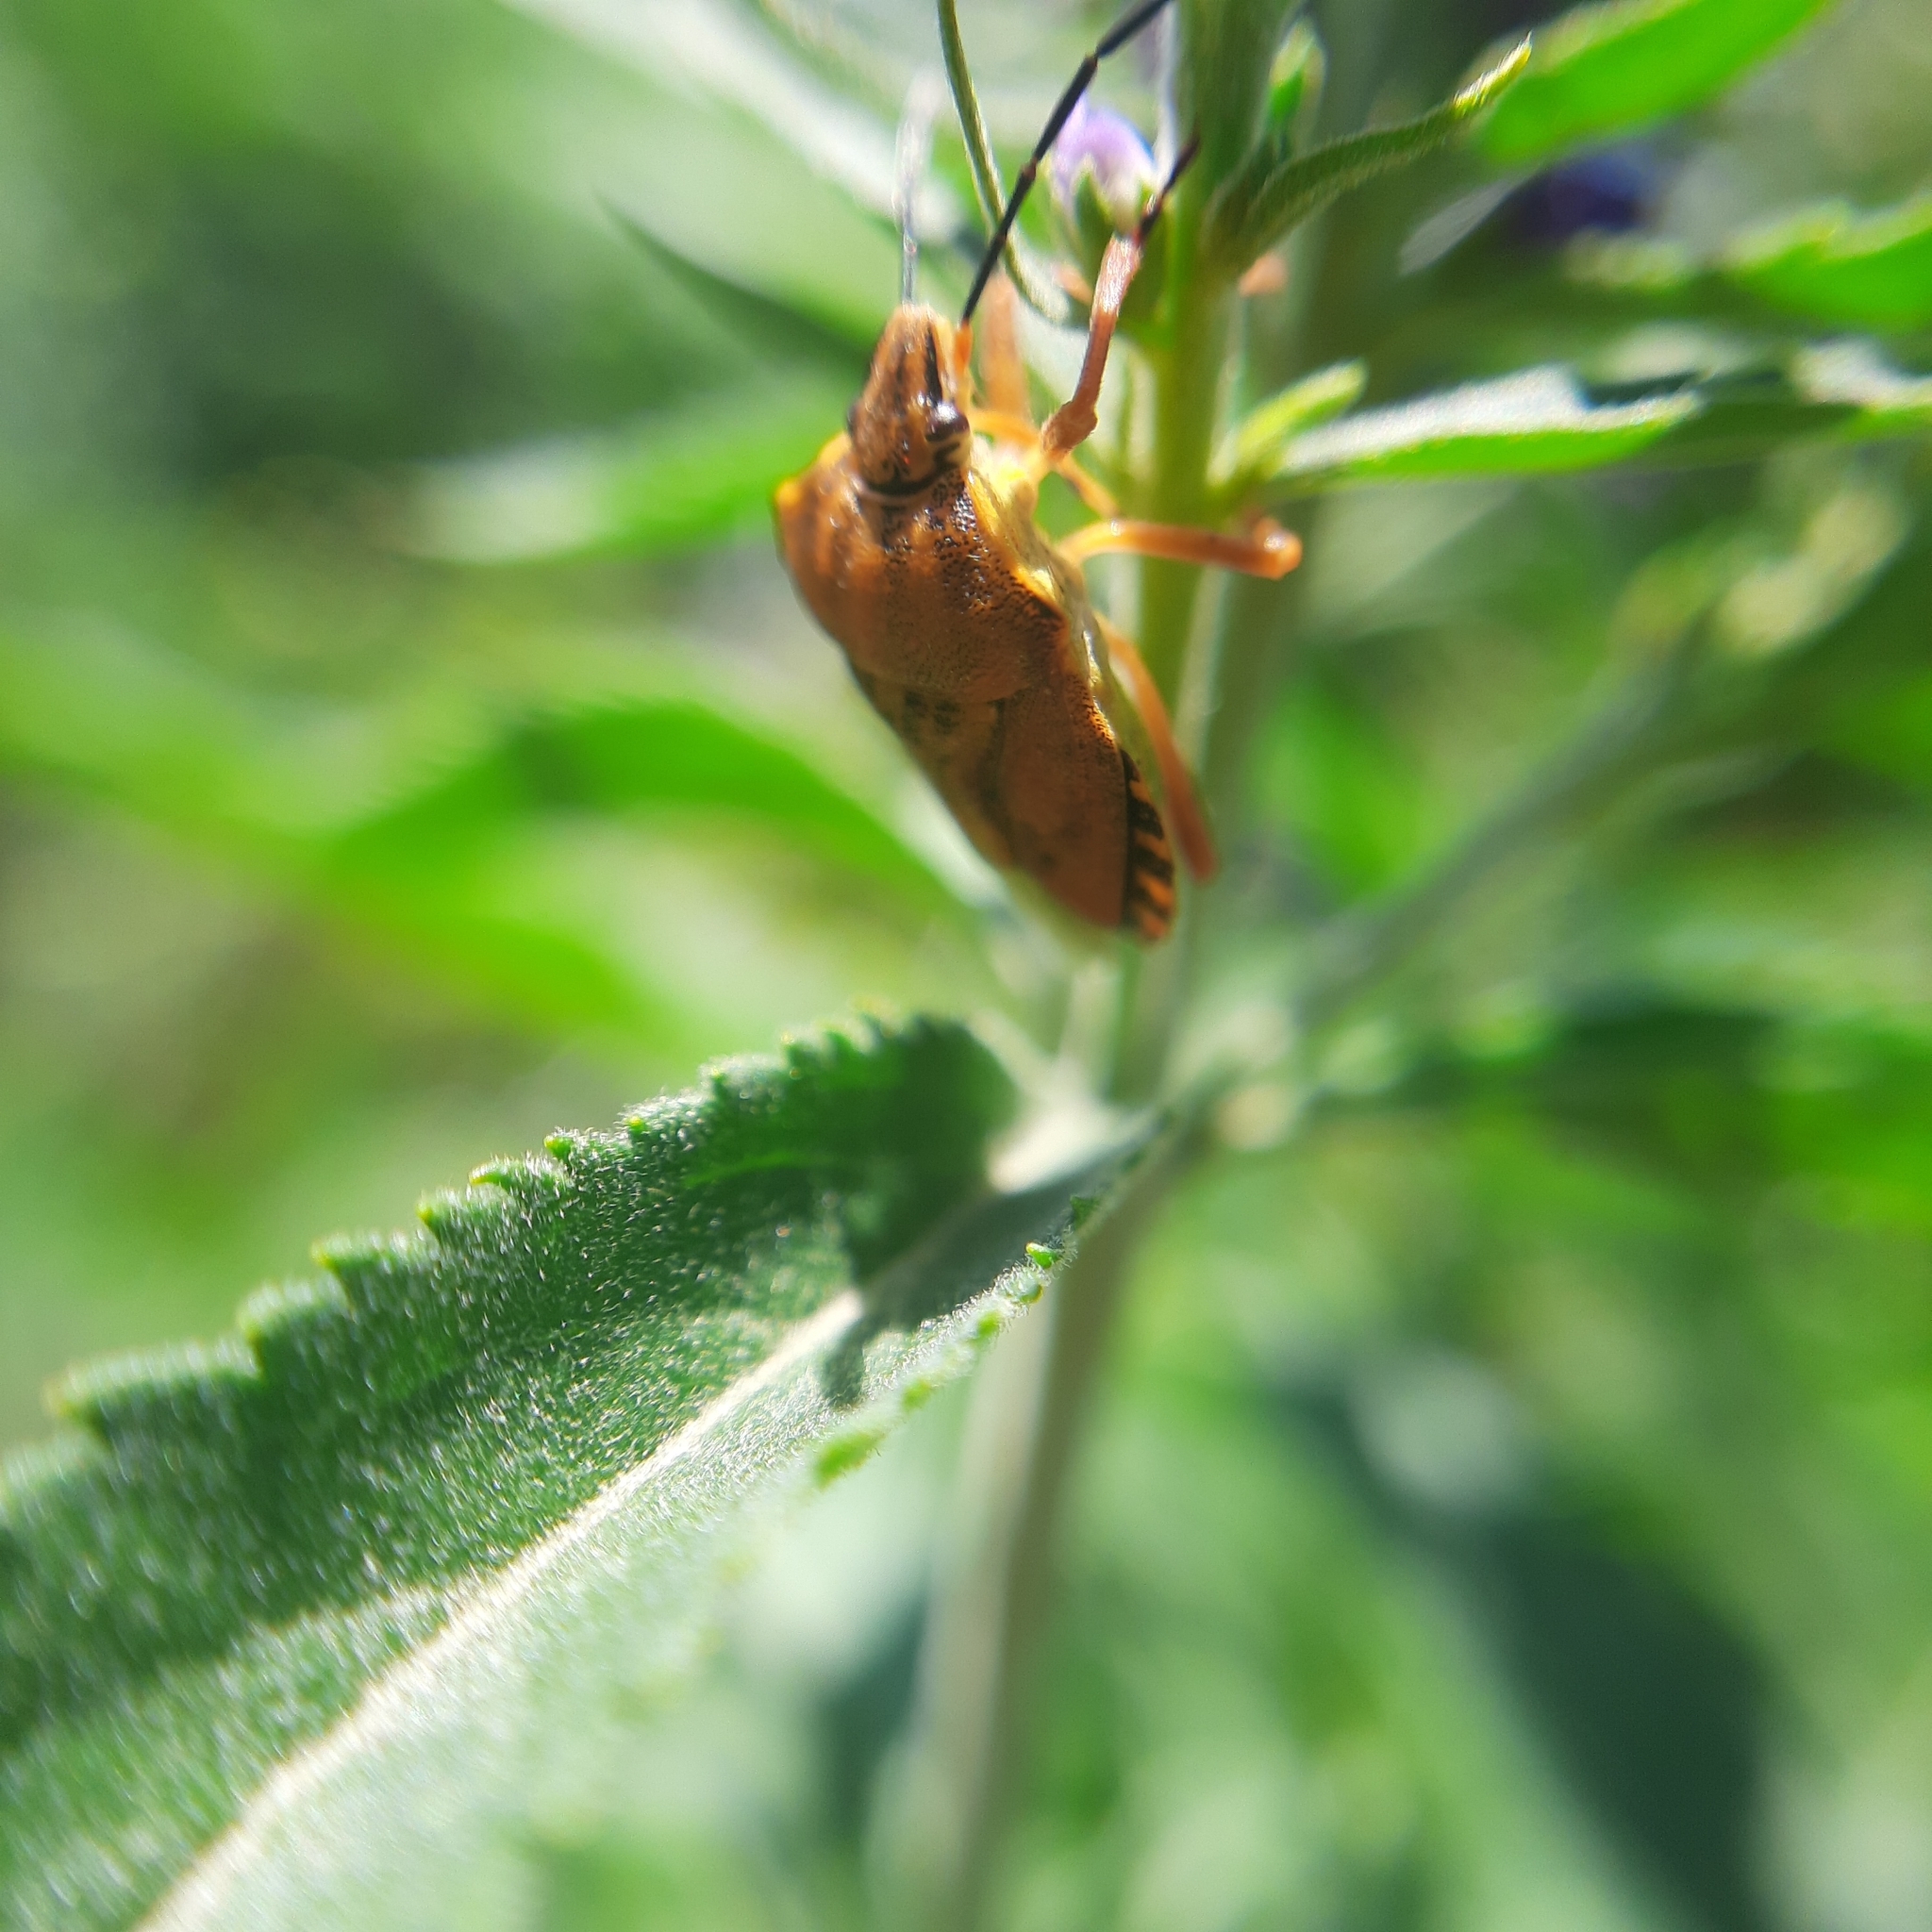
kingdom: Animalia
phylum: Arthropoda
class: Insecta
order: Hemiptera
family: Pentatomidae
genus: Carpocoris
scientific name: Carpocoris purpureipennis
